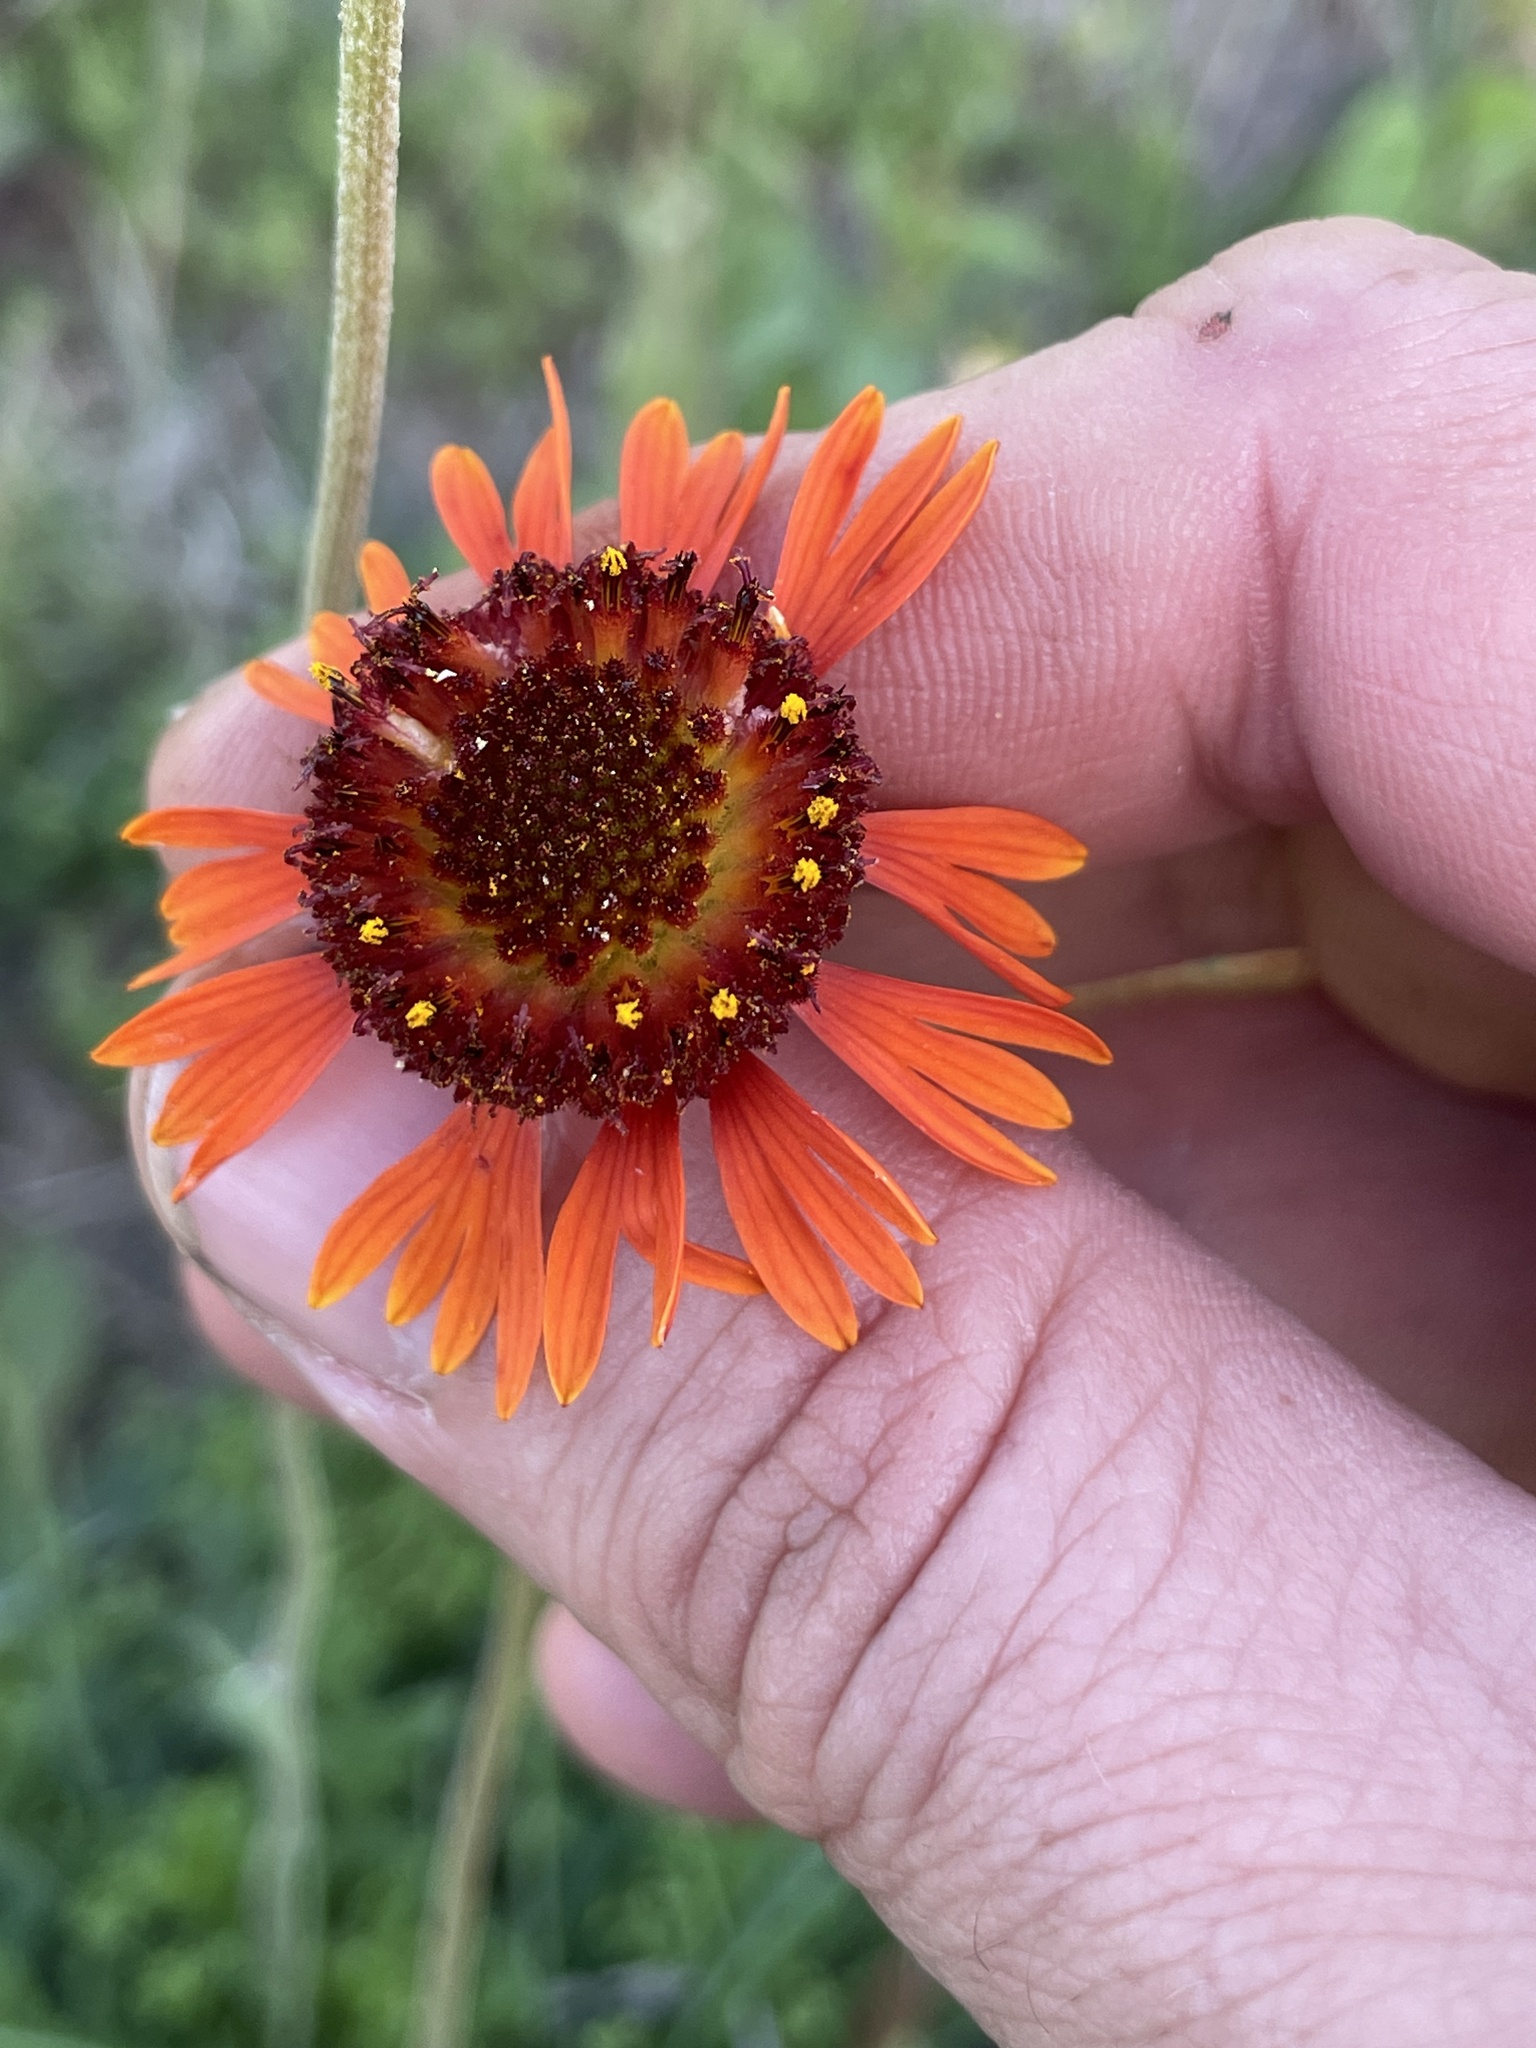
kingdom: Plantae
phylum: Tracheophyta
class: Magnoliopsida
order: Asterales
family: Asteraceae
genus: Gaillardia
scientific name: Gaillardia suavis
